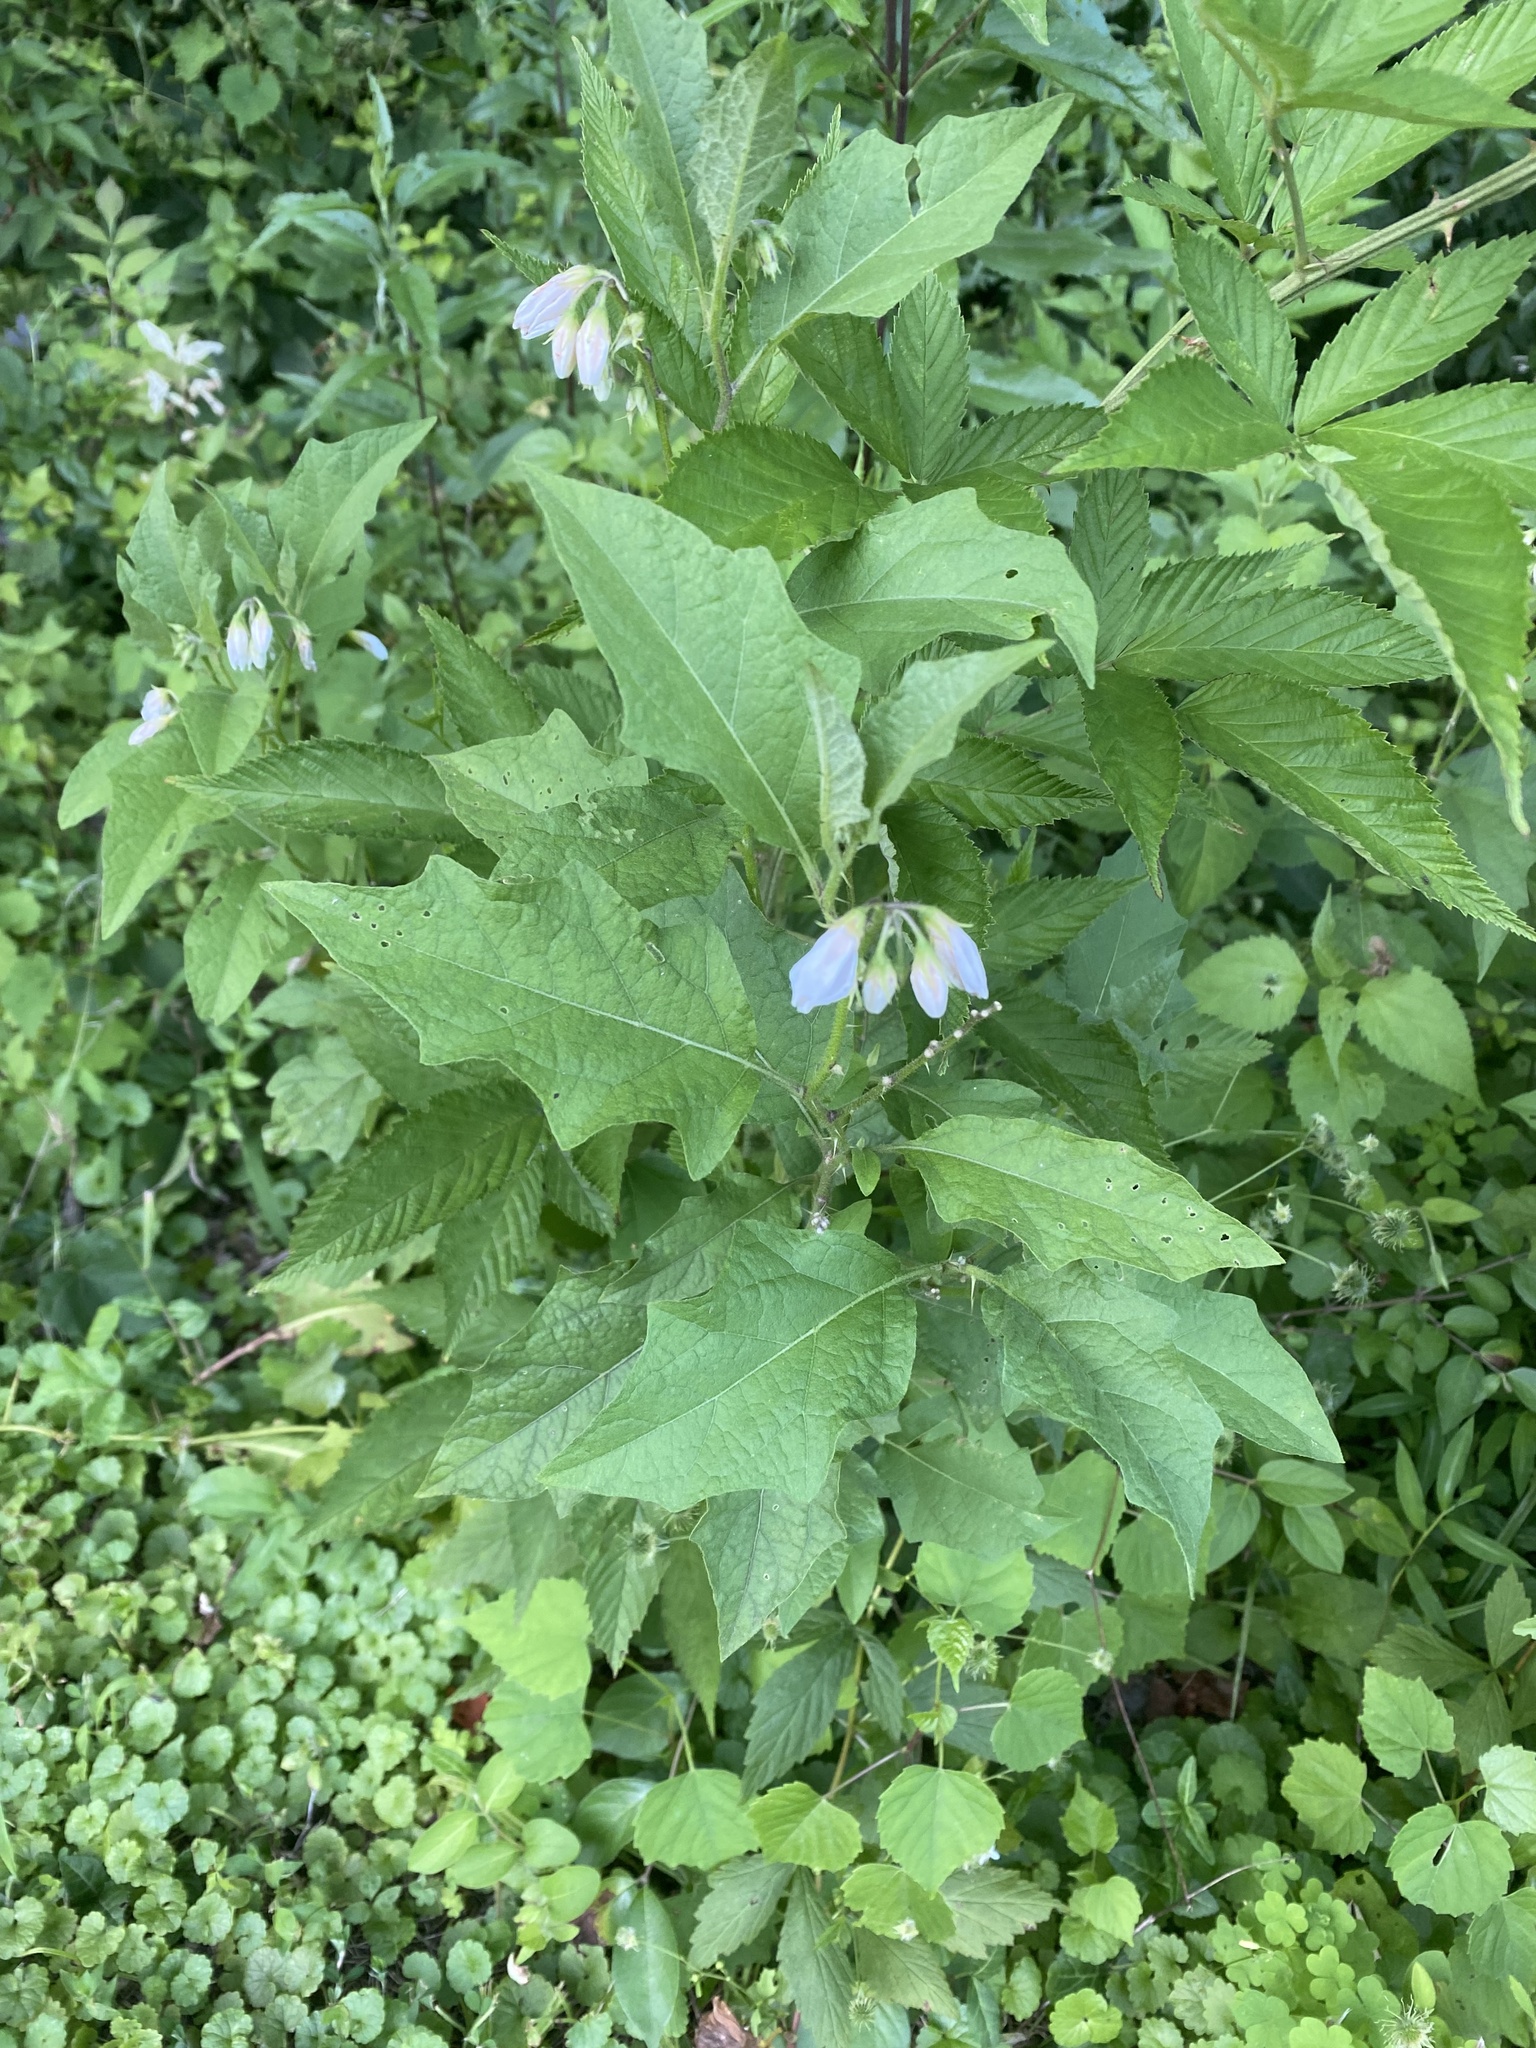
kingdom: Plantae
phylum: Tracheophyta
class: Magnoliopsida
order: Solanales
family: Solanaceae
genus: Solanum
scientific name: Solanum carolinense
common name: Horse-nettle
